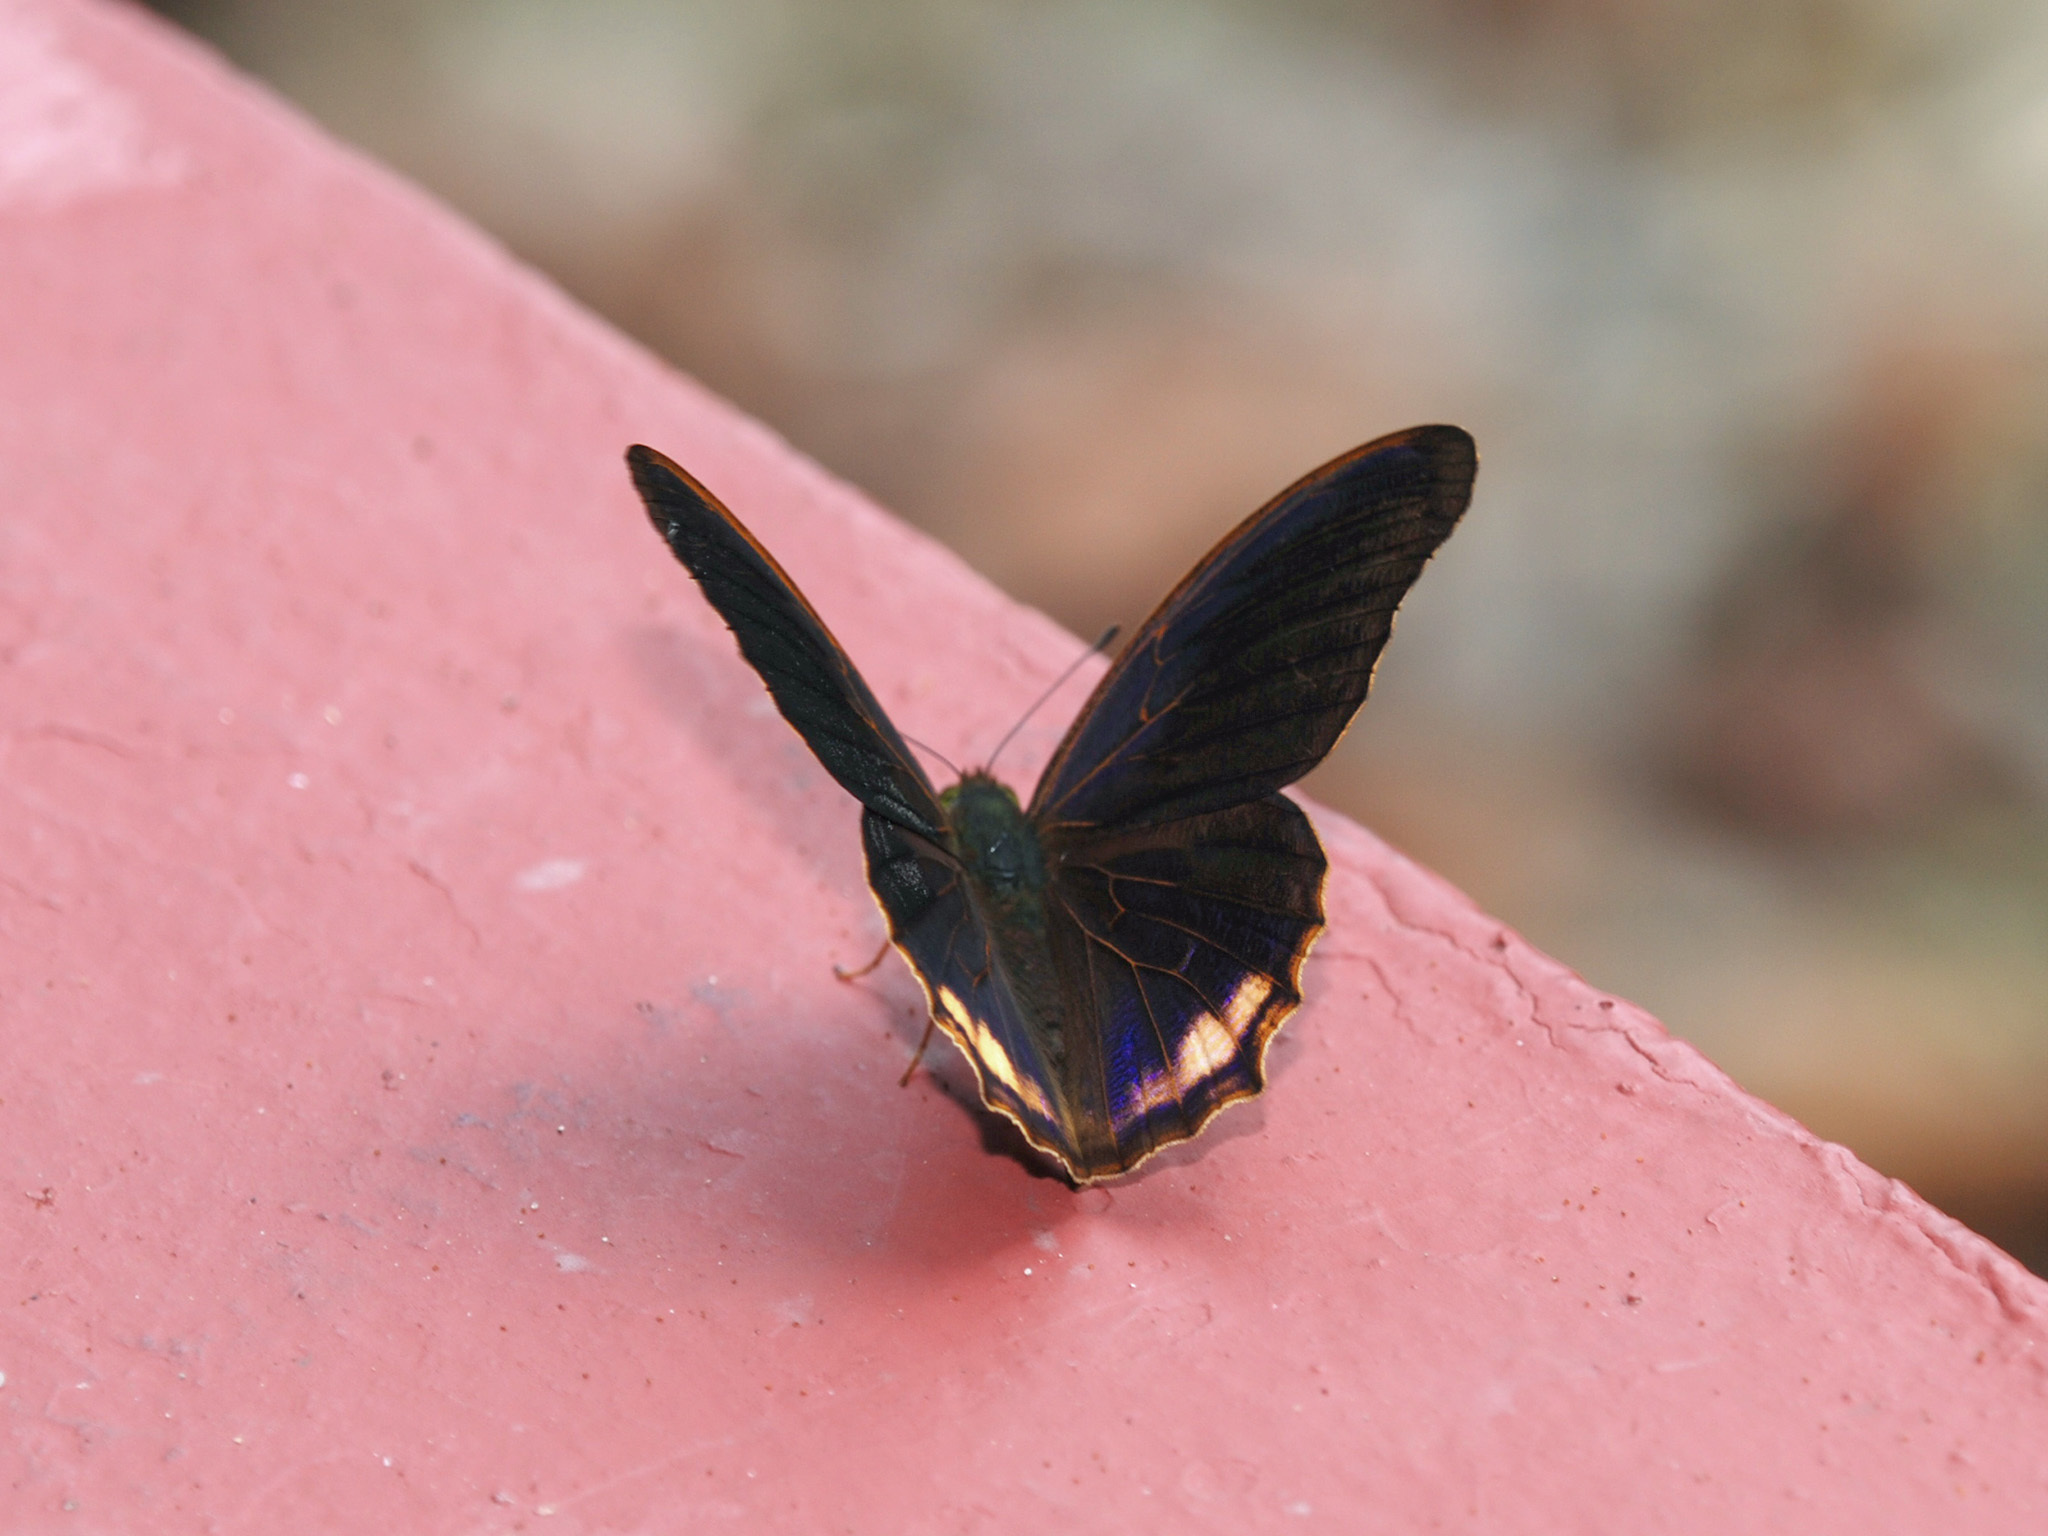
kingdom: Animalia
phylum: Arthropoda
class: Insecta
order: Lepidoptera
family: Nymphalidae
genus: Terinos
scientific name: Terinos terpander
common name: Royal assyrian
